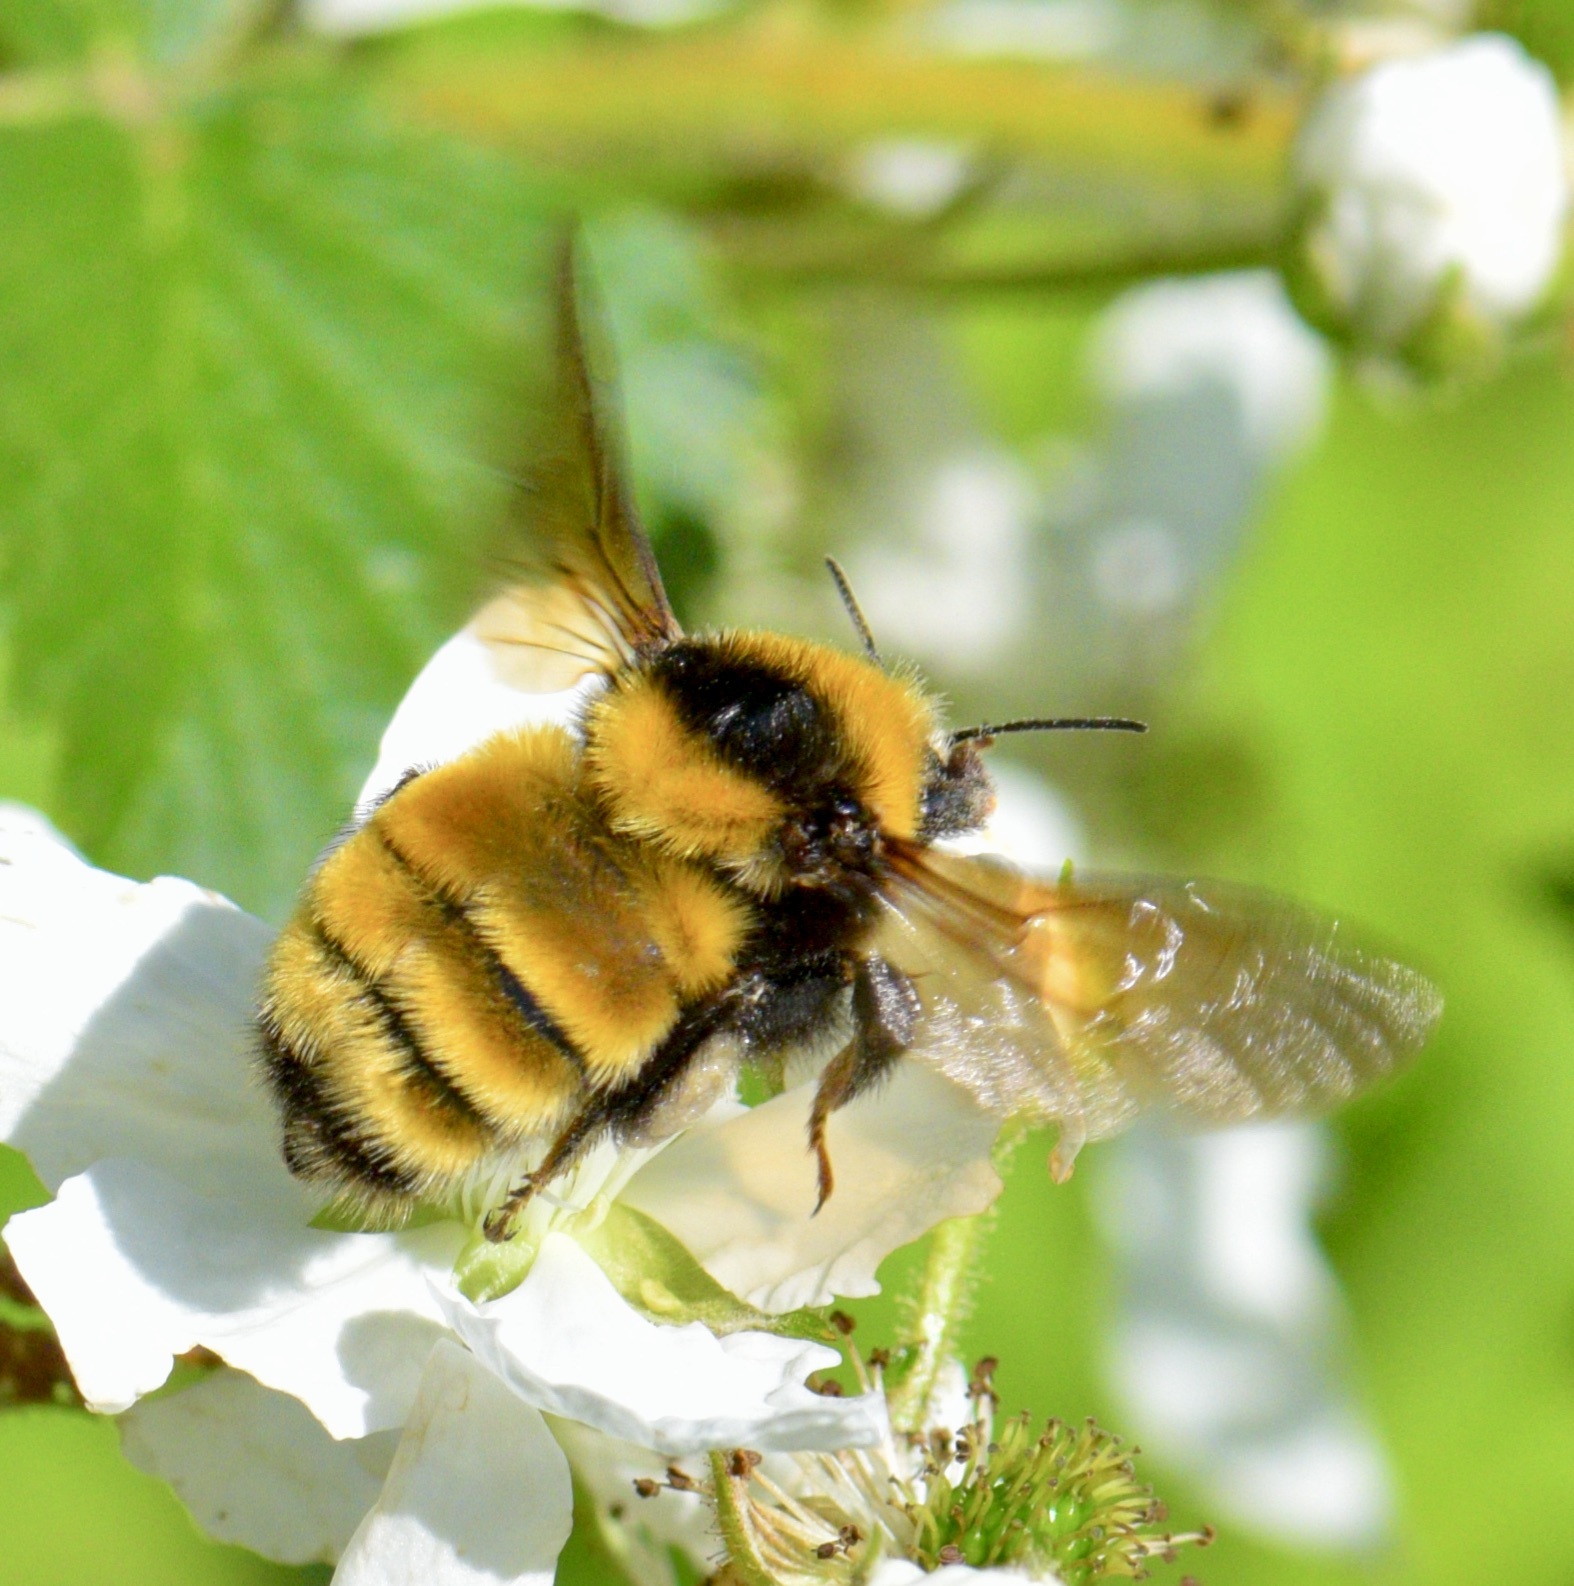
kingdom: Animalia
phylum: Arthropoda
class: Insecta
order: Hymenoptera
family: Apidae
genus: Bombus
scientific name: Bombus borealis
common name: Northern amber bumble bee
